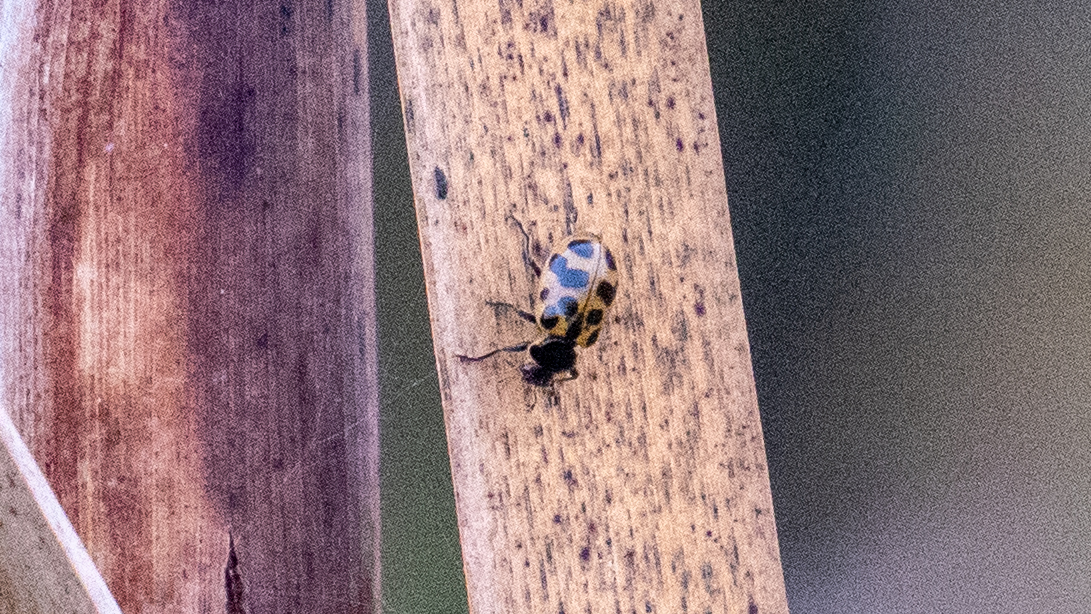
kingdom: Animalia
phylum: Arthropoda
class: Insecta
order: Coleoptera
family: Coccinellidae
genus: Hippodamia
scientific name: Hippodamia tredecimpunctata
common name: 13-spot ladybird
